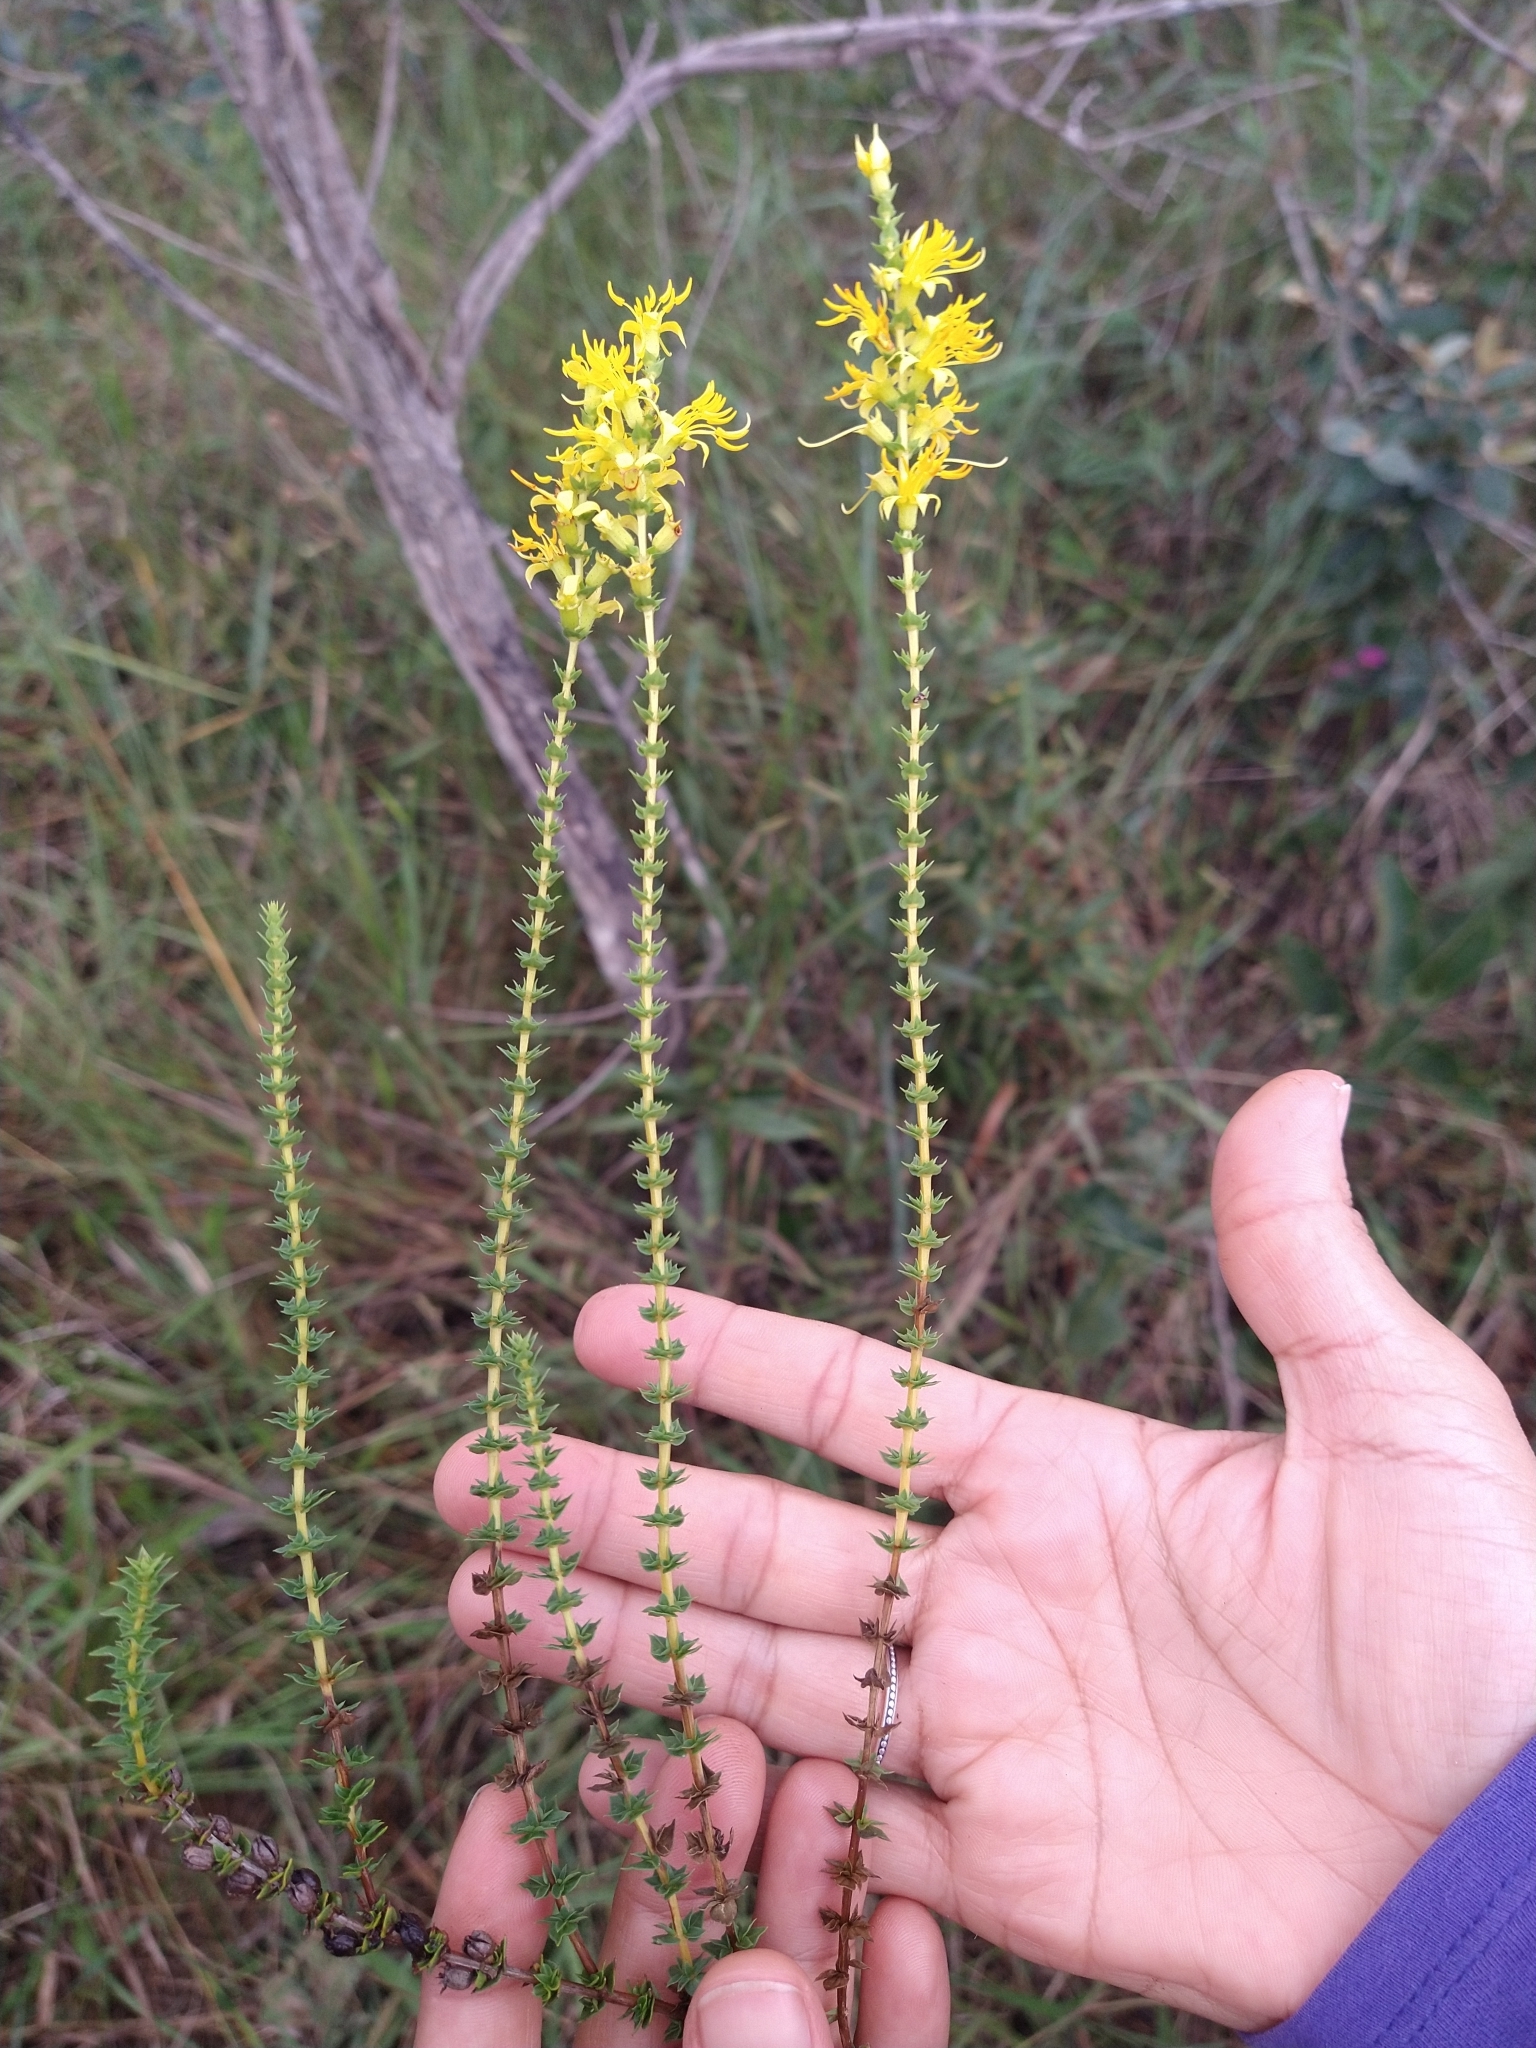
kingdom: Plantae
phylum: Tracheophyta
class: Magnoliopsida
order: Myrtales
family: Melastomataceae
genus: Cambessedesia
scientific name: Cambessedesia espora
